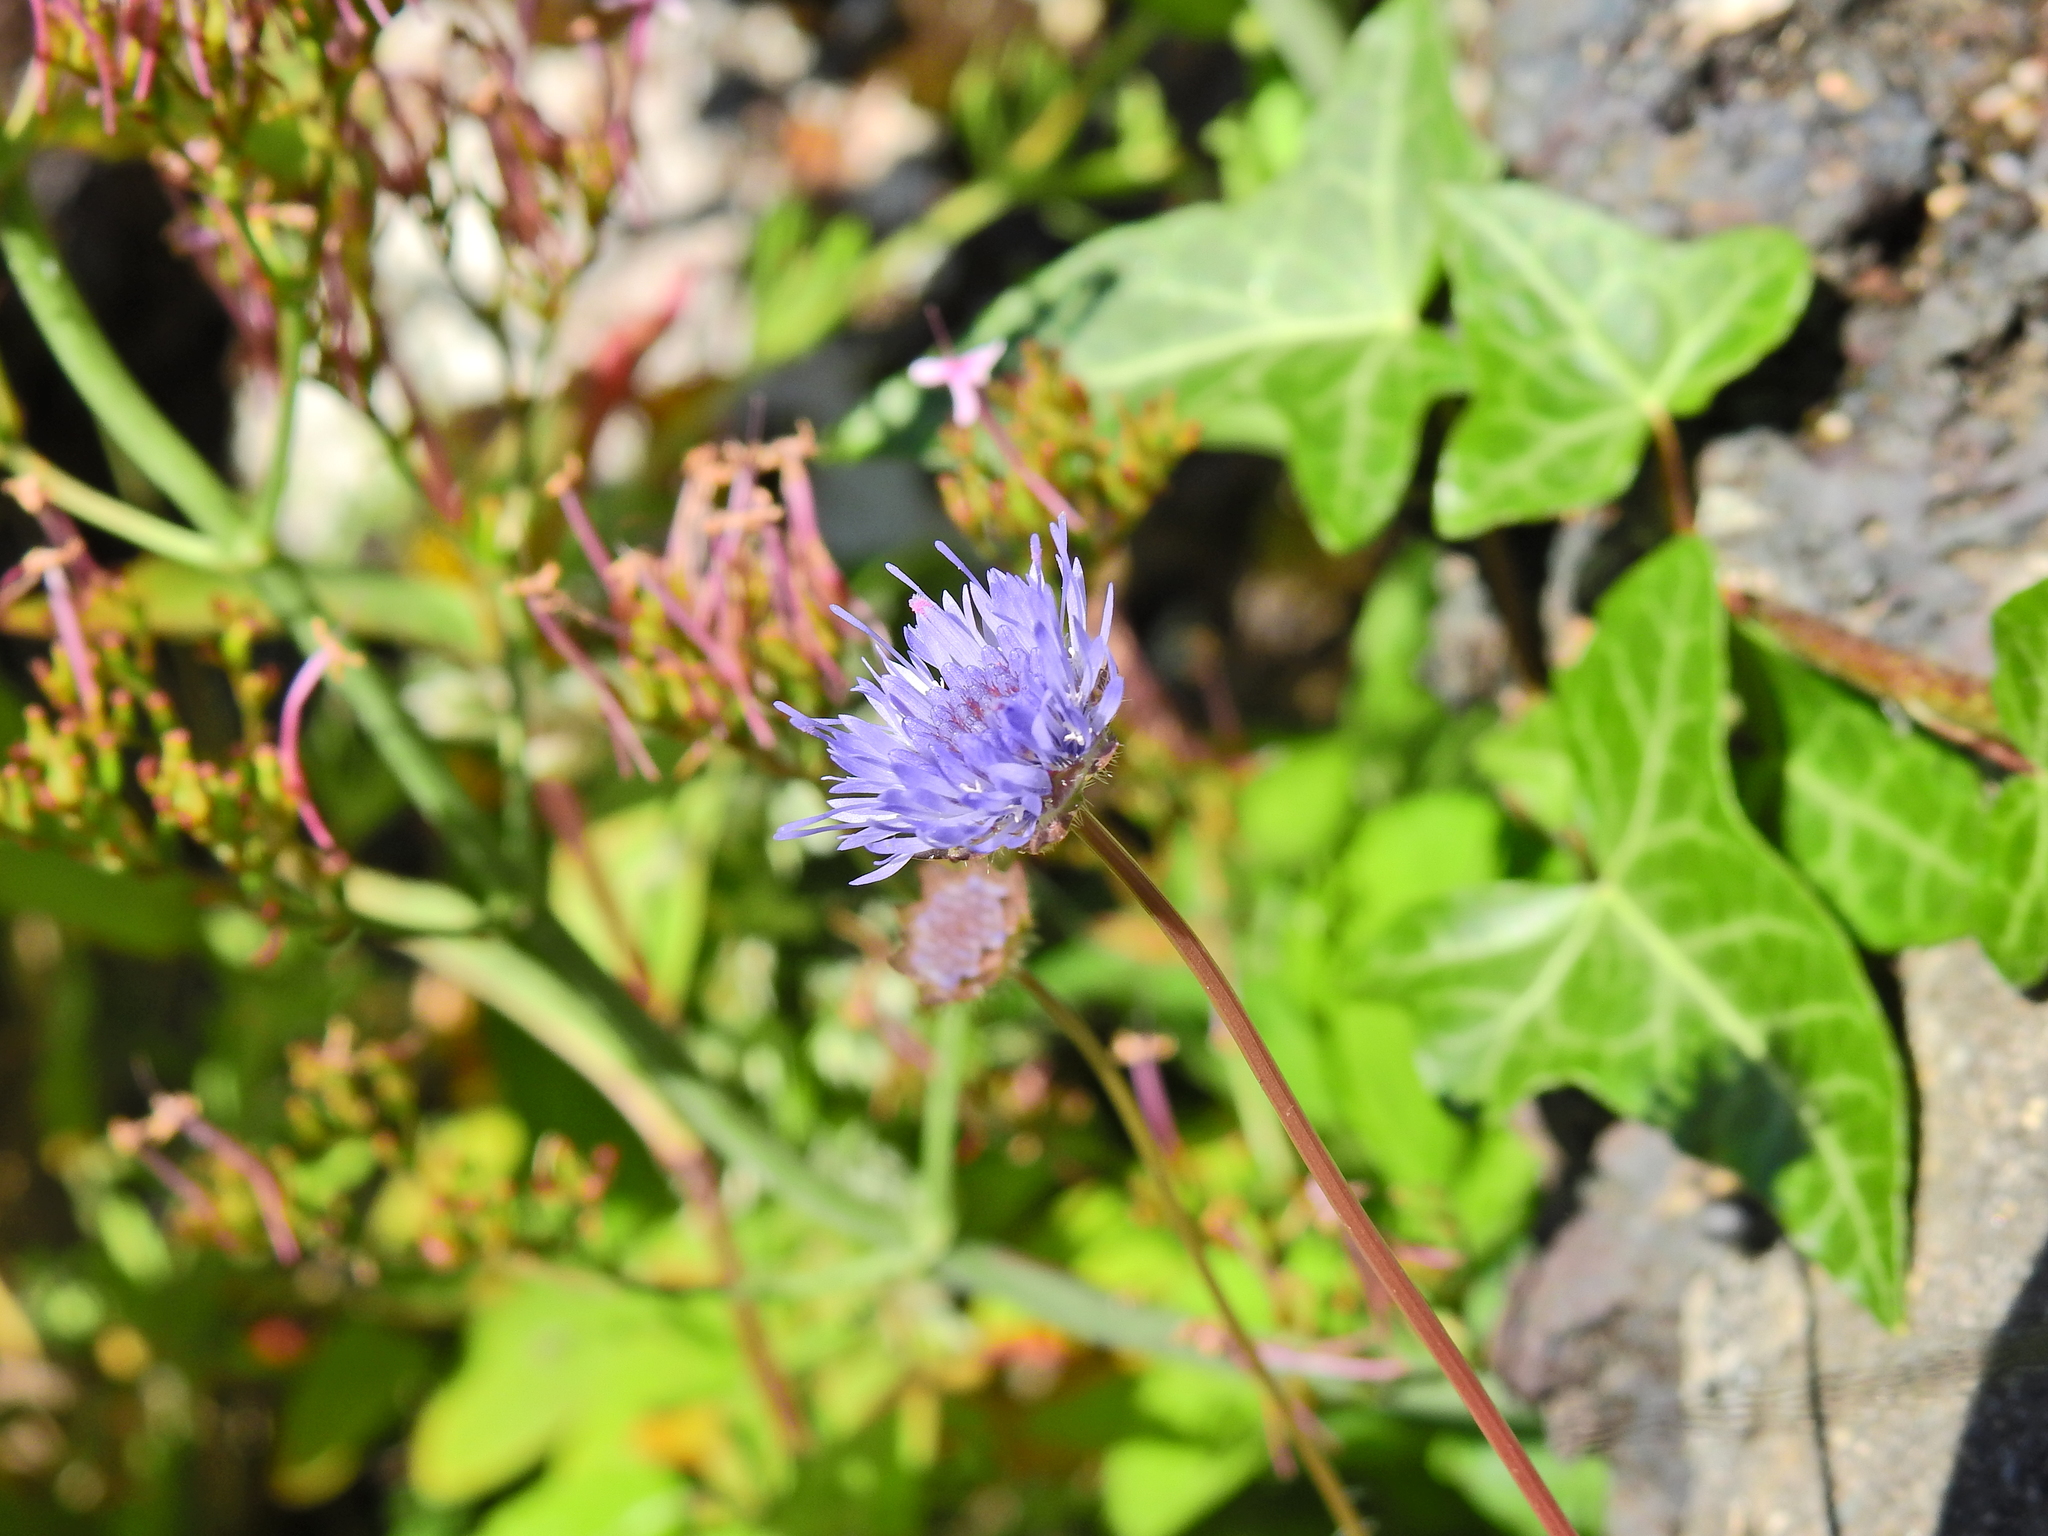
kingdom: Plantae
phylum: Tracheophyta
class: Magnoliopsida
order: Asterales
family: Campanulaceae
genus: Jasione
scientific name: Jasione montana
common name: Sheep's-bit
